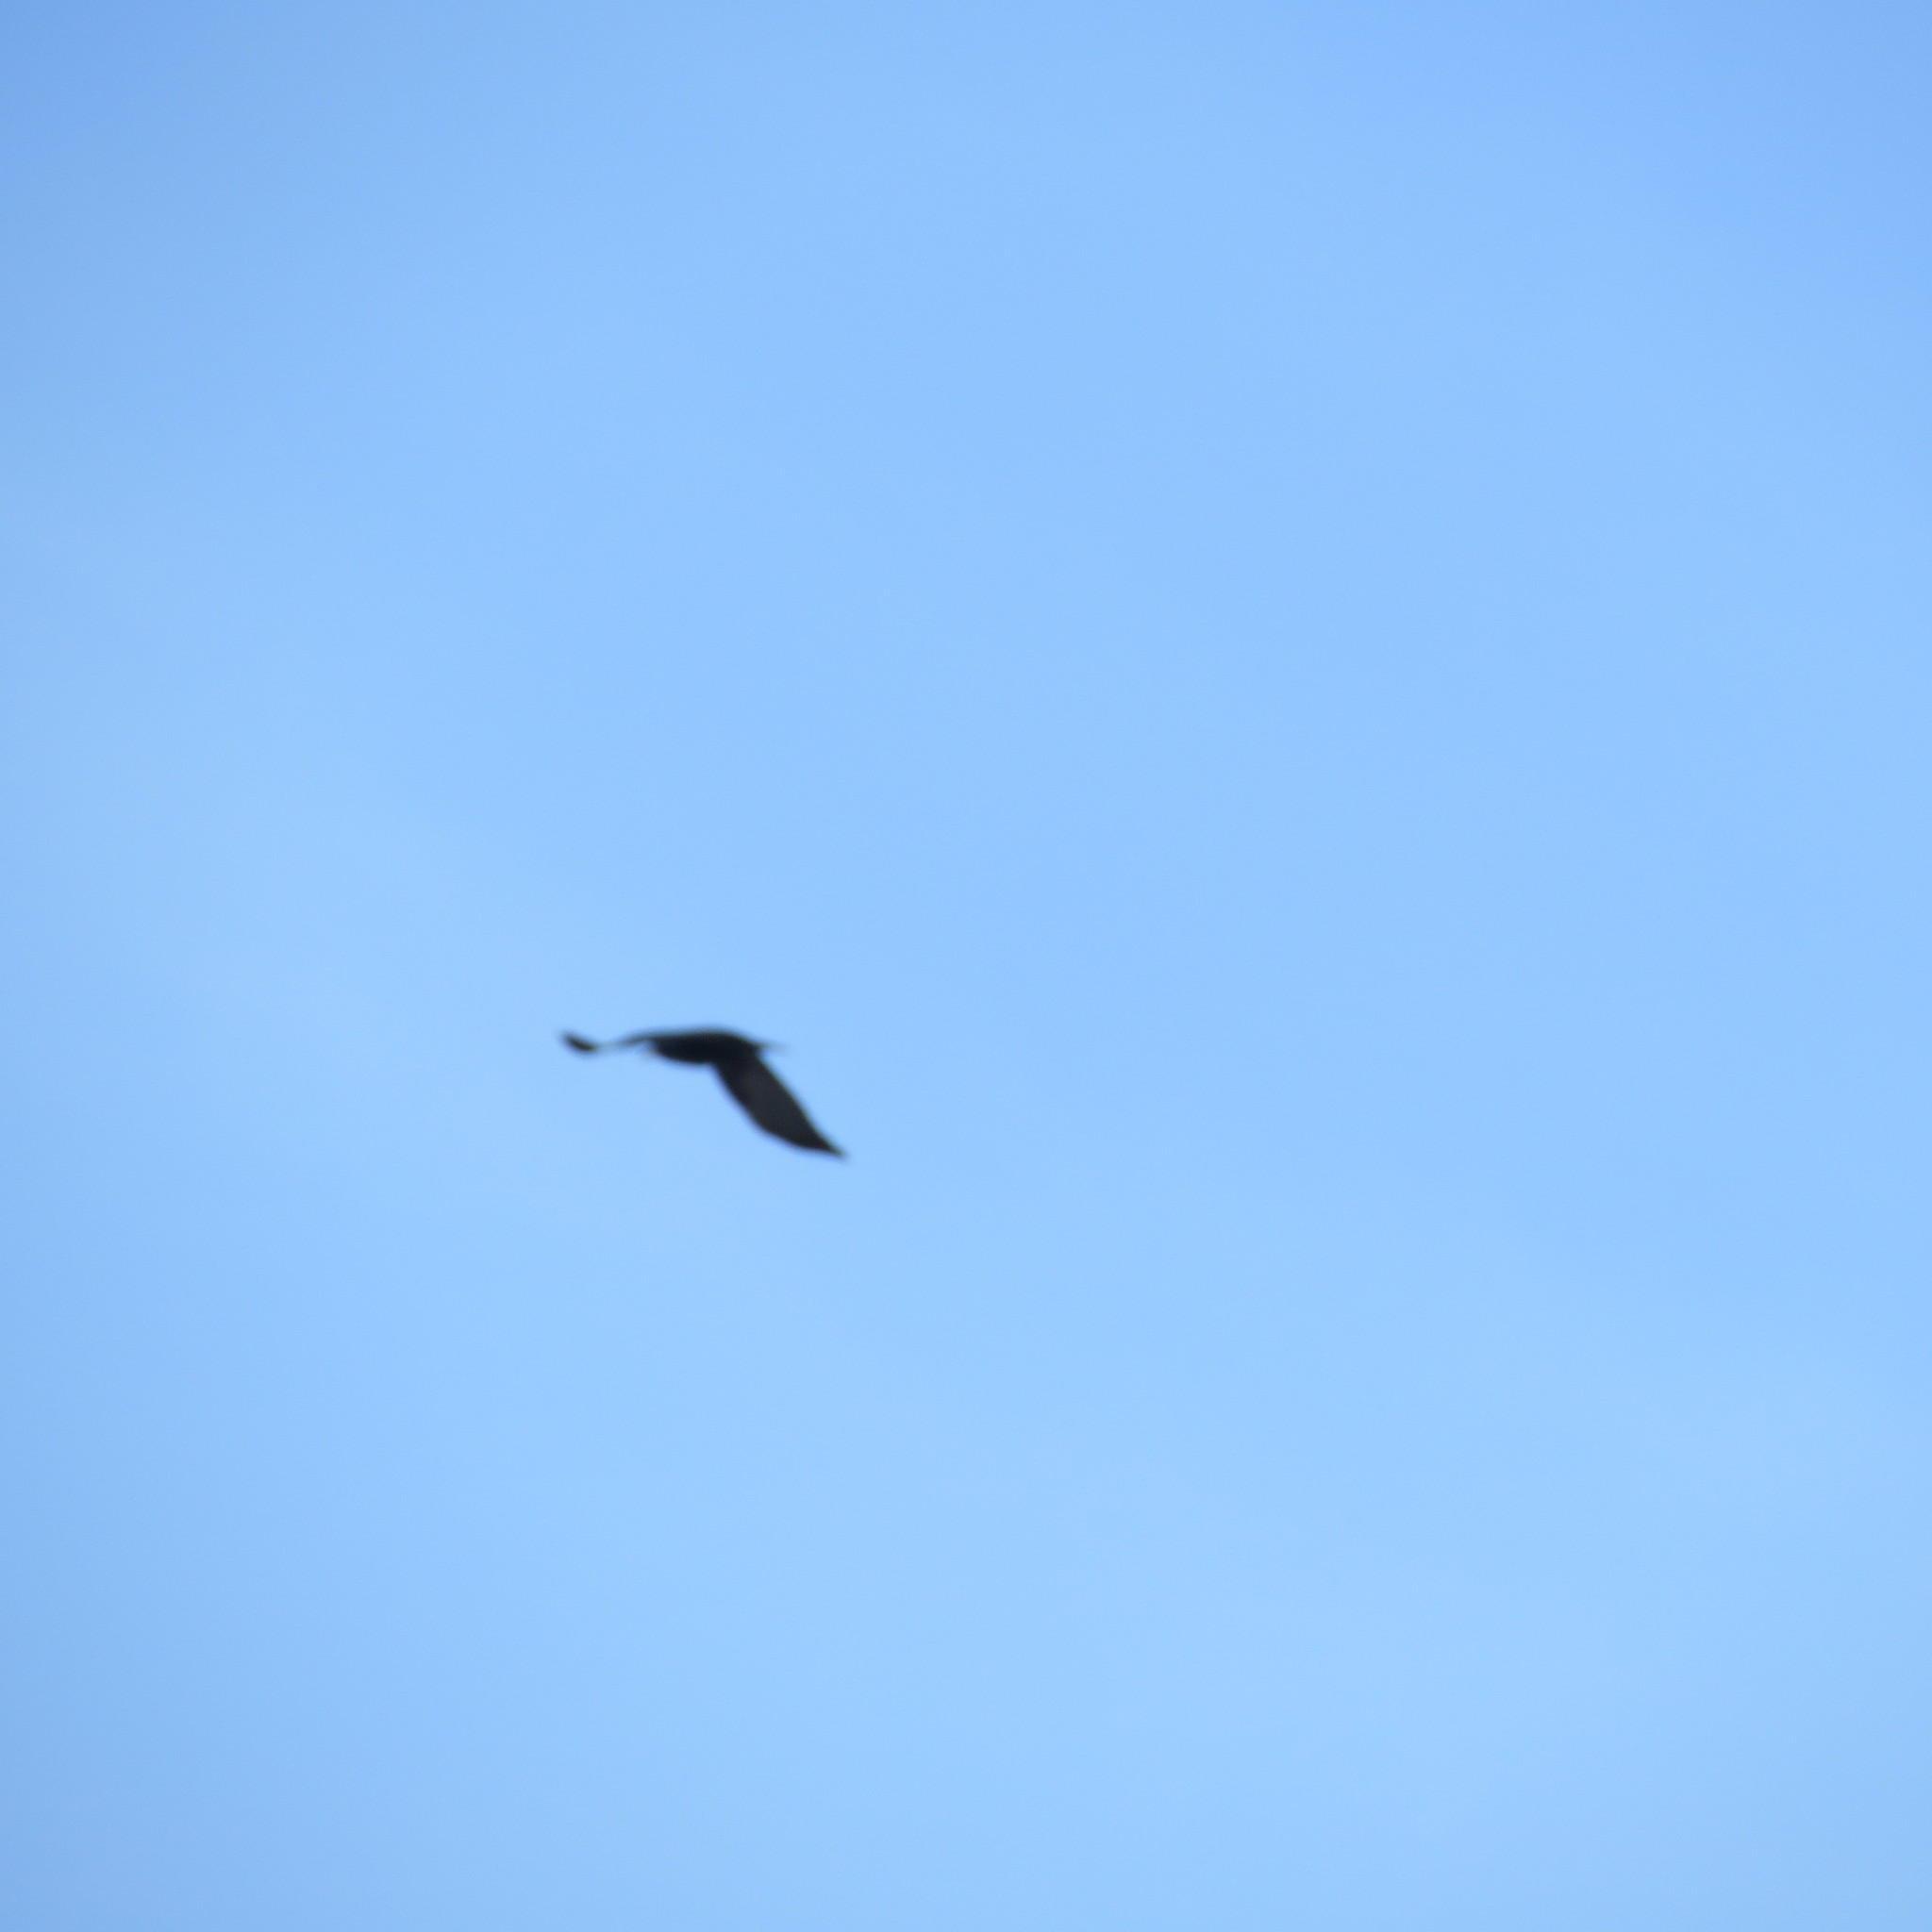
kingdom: Animalia
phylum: Chordata
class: Aves
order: Passeriformes
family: Corvidae
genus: Corvus
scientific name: Corvus frugilegus
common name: Rook
